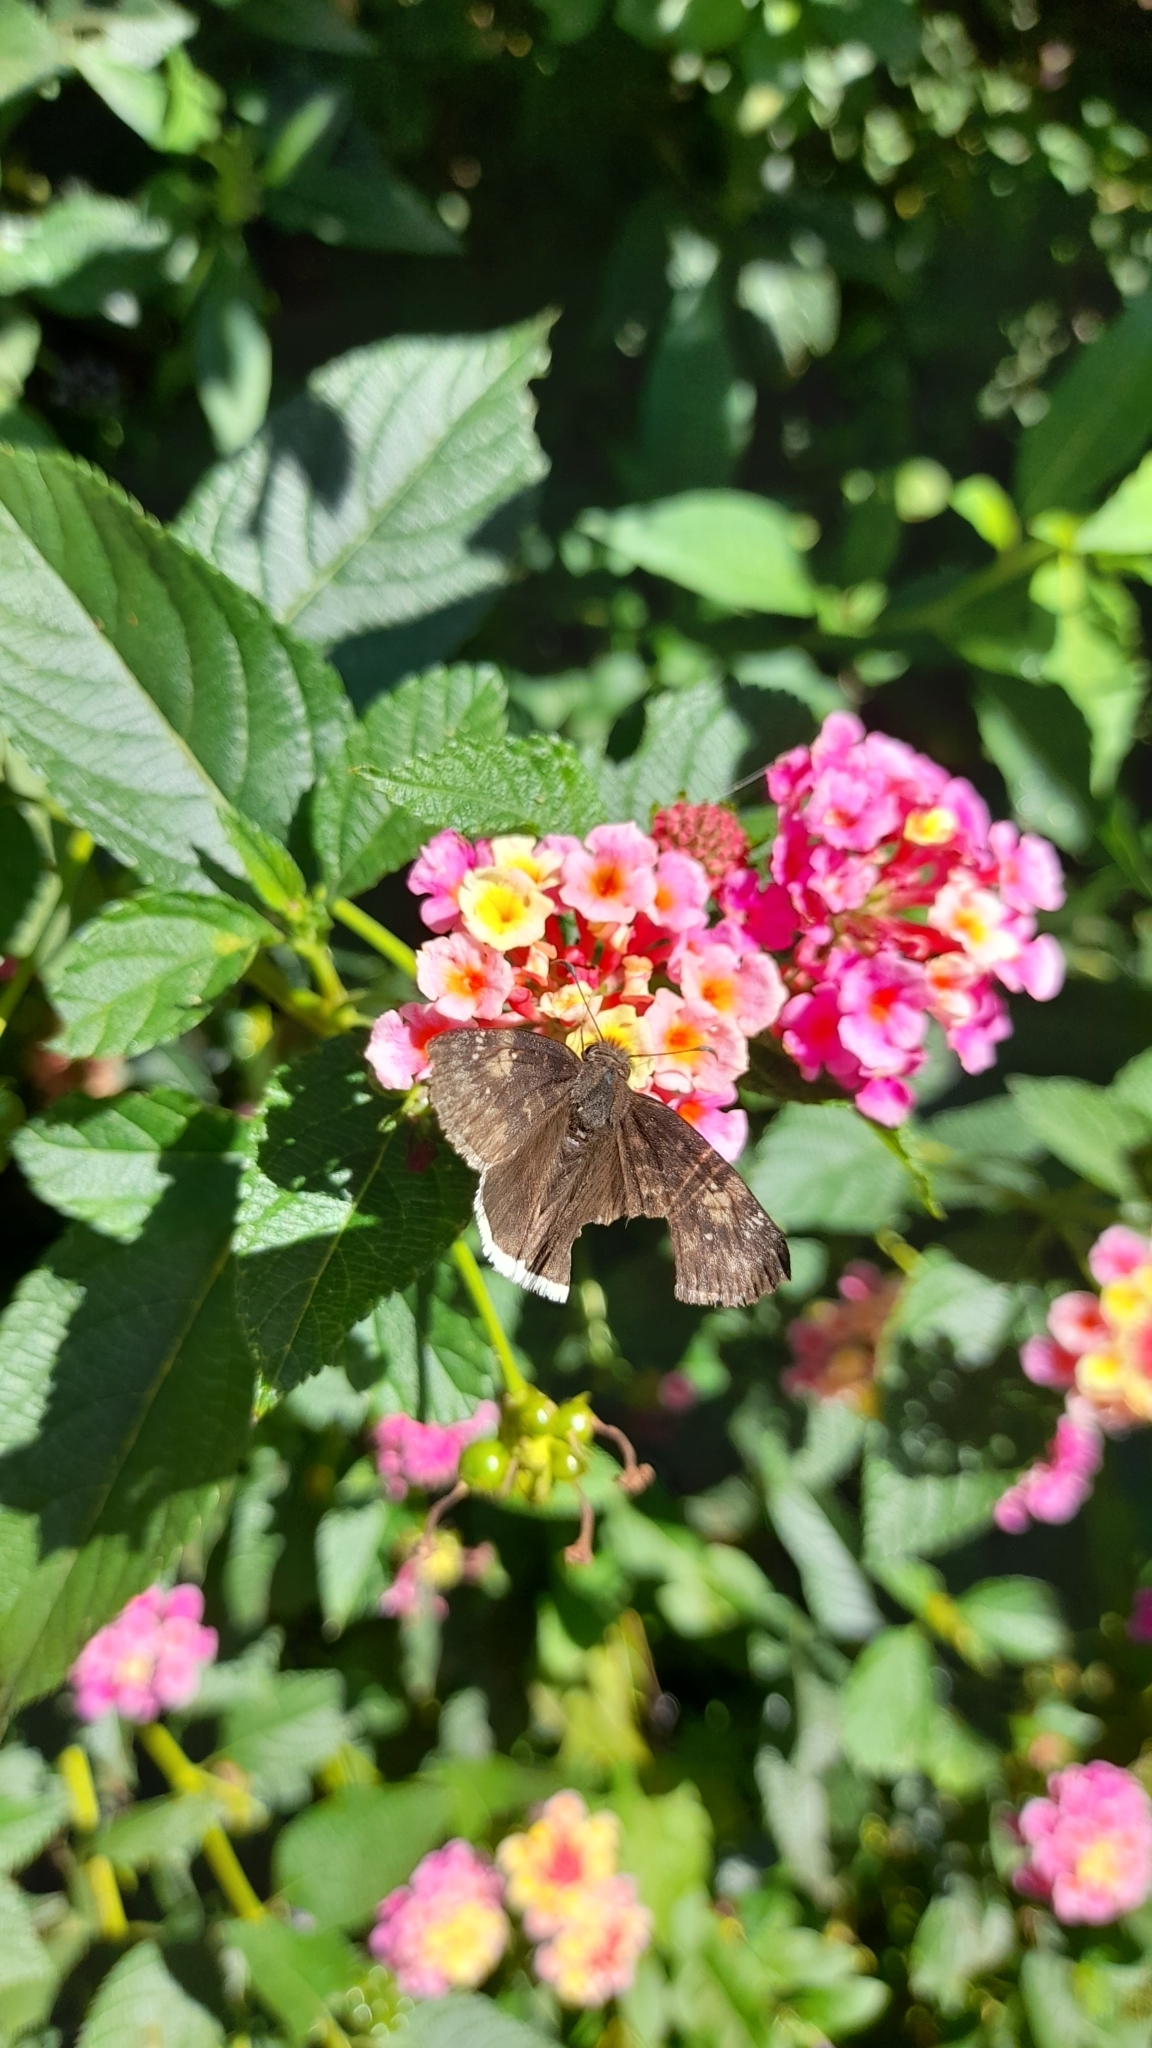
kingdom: Animalia
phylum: Arthropoda
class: Insecta
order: Lepidoptera
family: Hesperiidae
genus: Erynnis
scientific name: Erynnis funeralis
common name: Funereal duskywing
